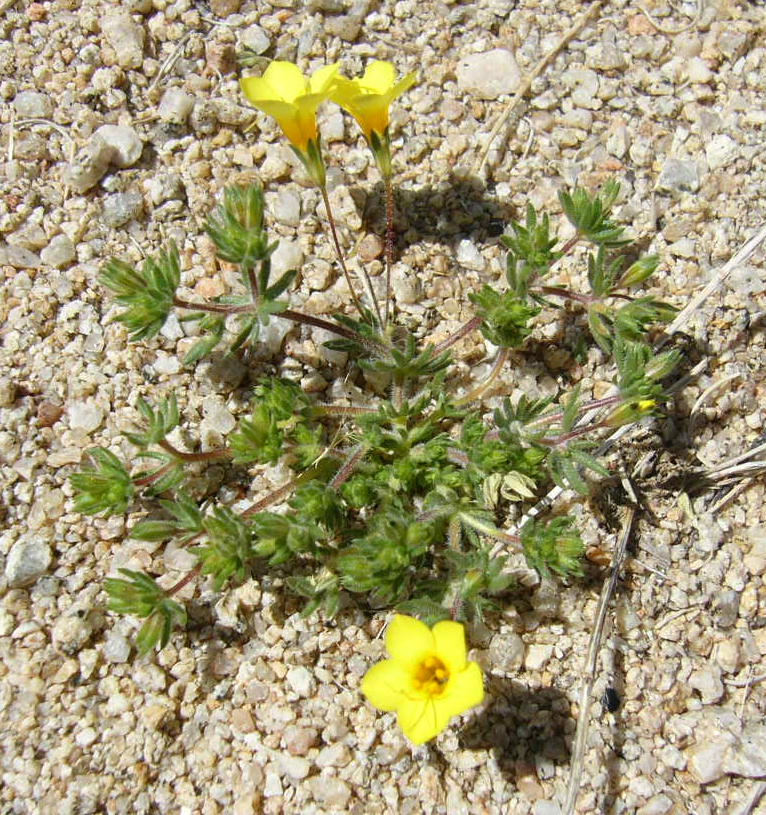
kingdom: Plantae
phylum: Tracheophyta
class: Magnoliopsida
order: Ericales
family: Polemoniaceae
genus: Leptosiphon
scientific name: Leptosiphon chrysanthus
